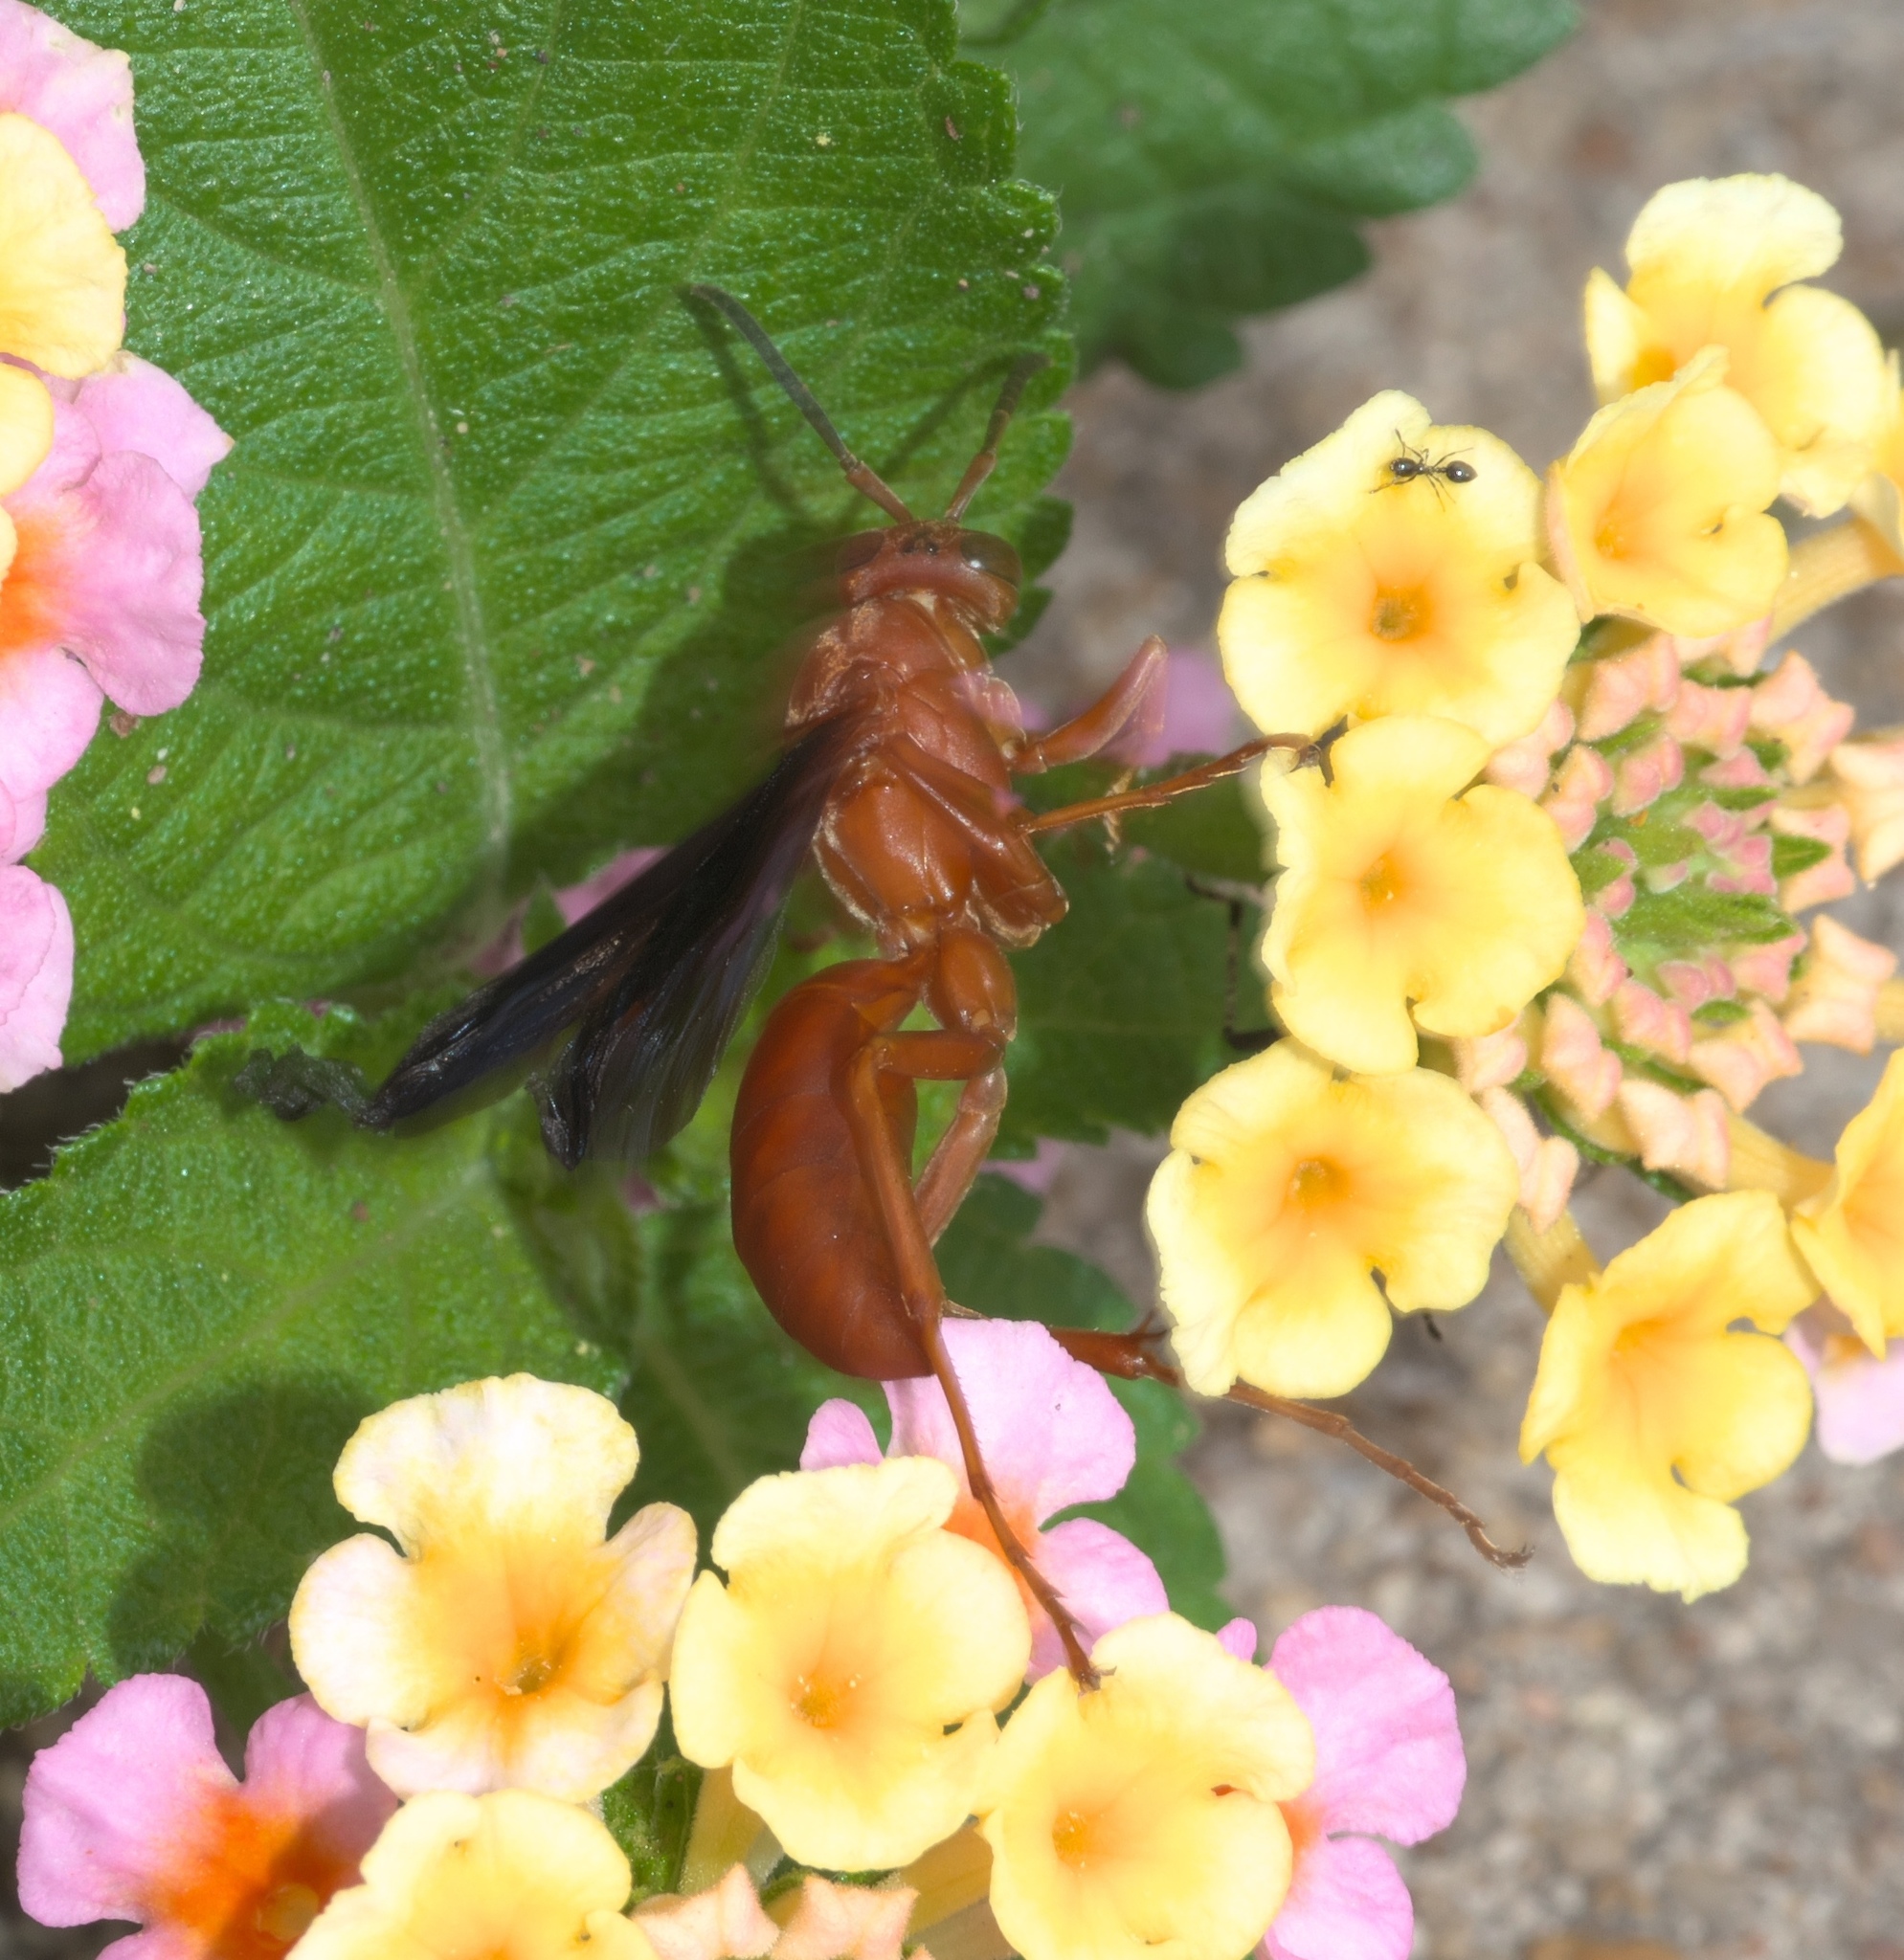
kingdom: Animalia
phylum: Arthropoda
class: Insecta
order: Hymenoptera
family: Vespidae
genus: Fuscopolistes
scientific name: Fuscopolistes
